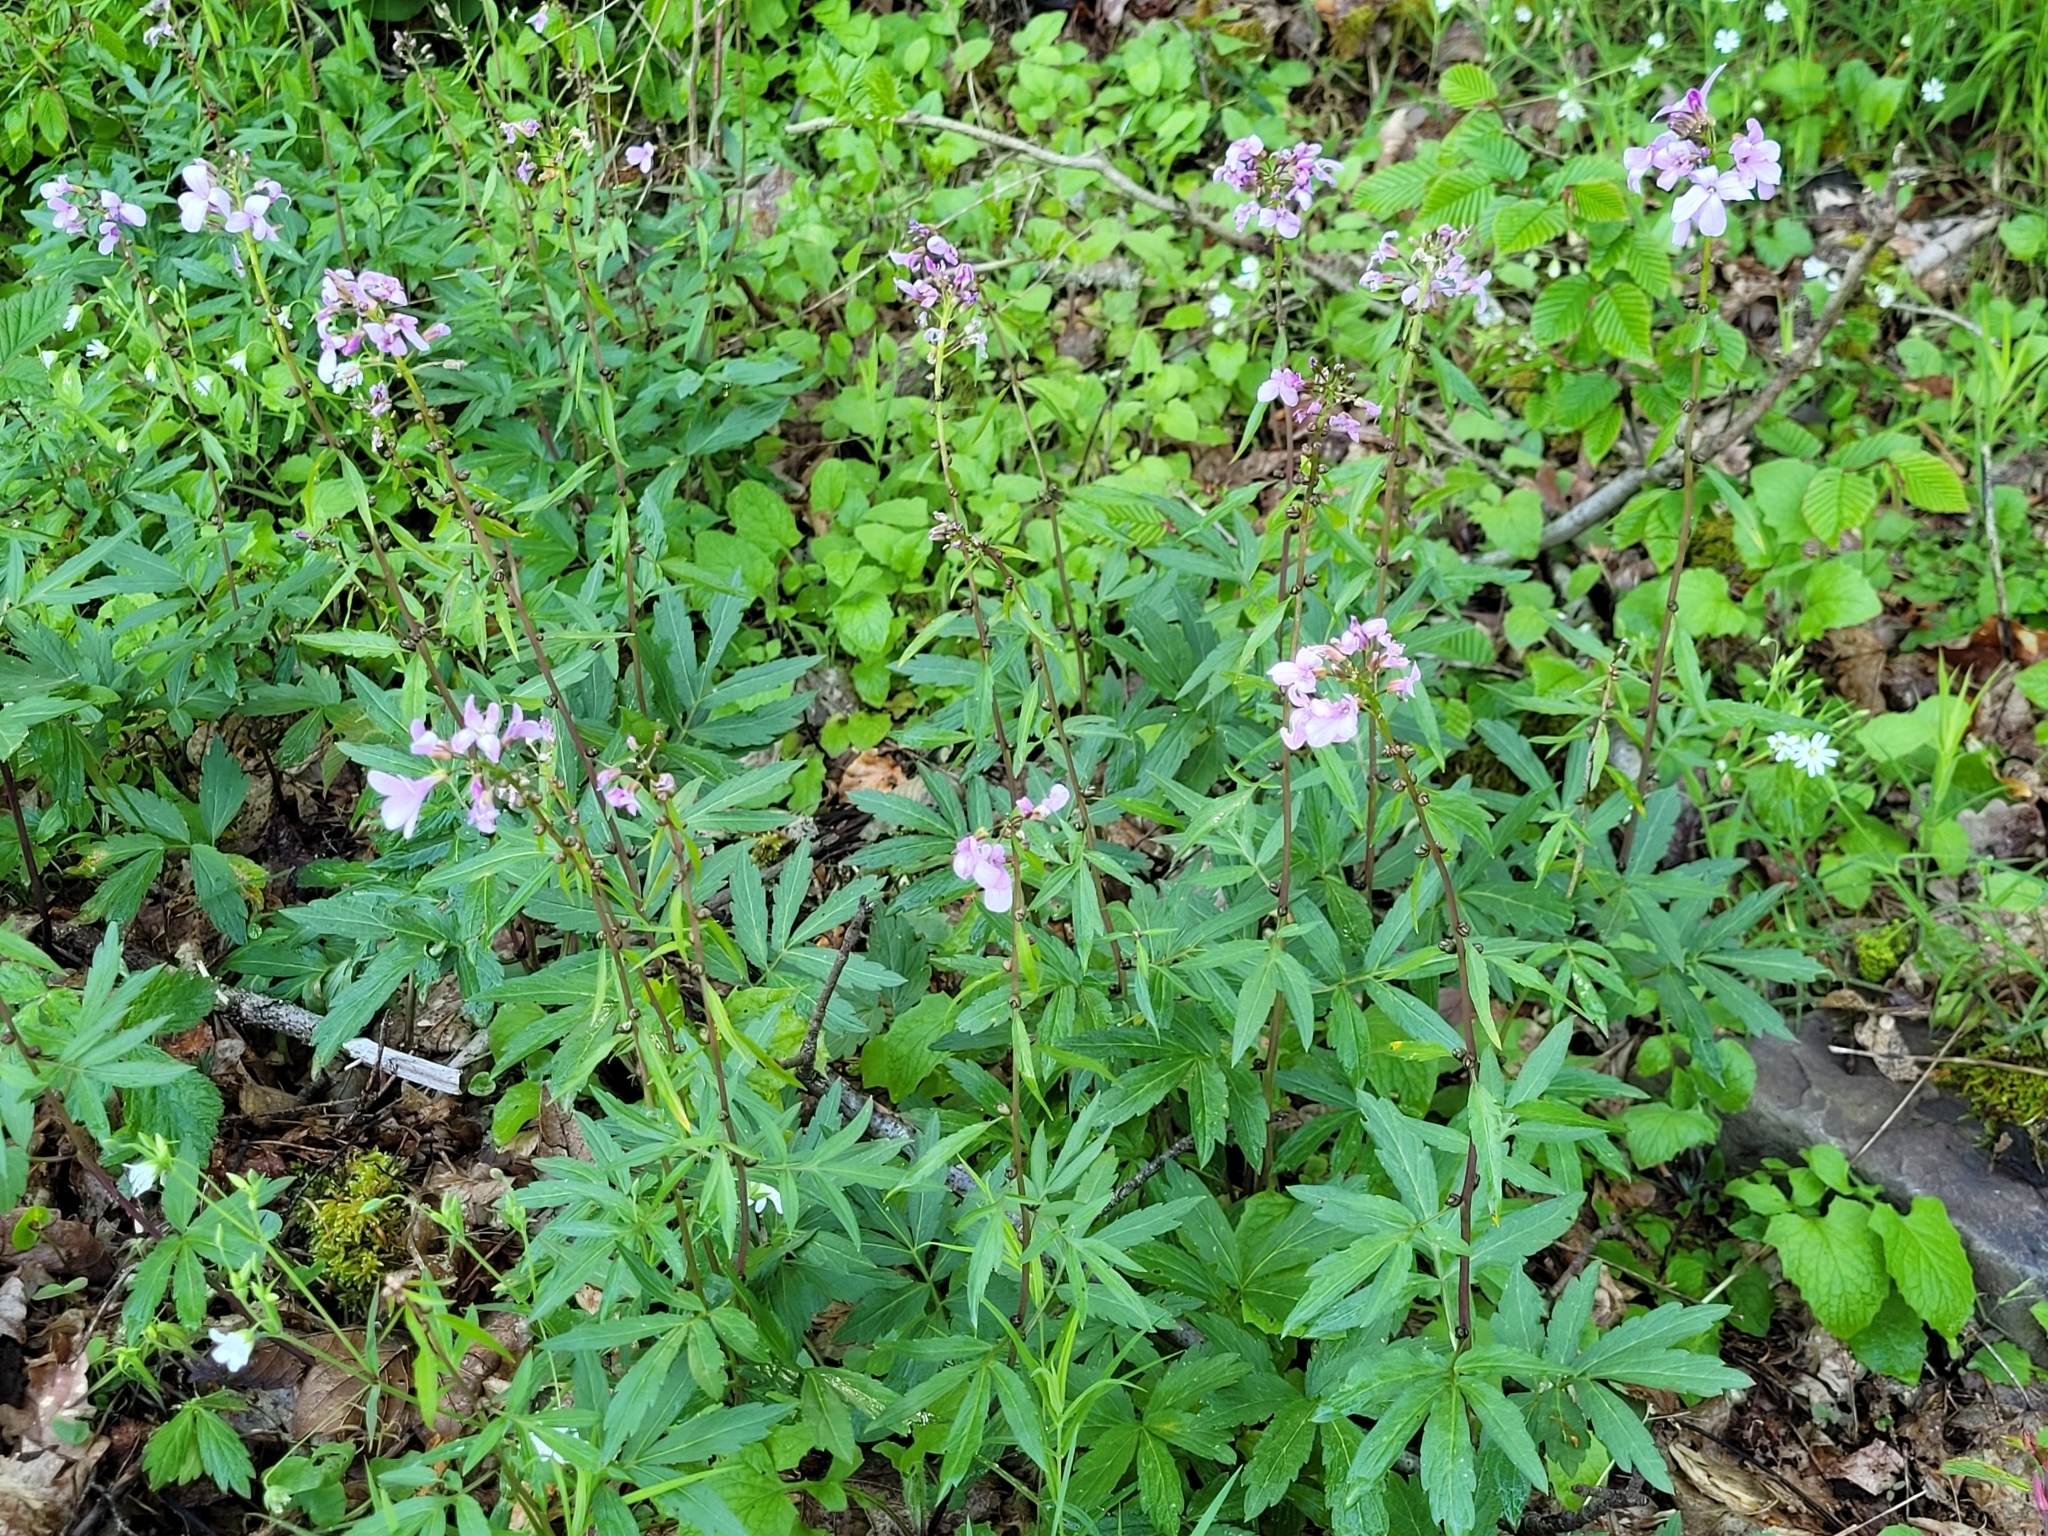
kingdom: Plantae
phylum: Tracheophyta
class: Magnoliopsida
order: Brassicales
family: Brassicaceae
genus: Cardamine
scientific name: Cardamine bulbifera
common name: Coralroot bittercress
